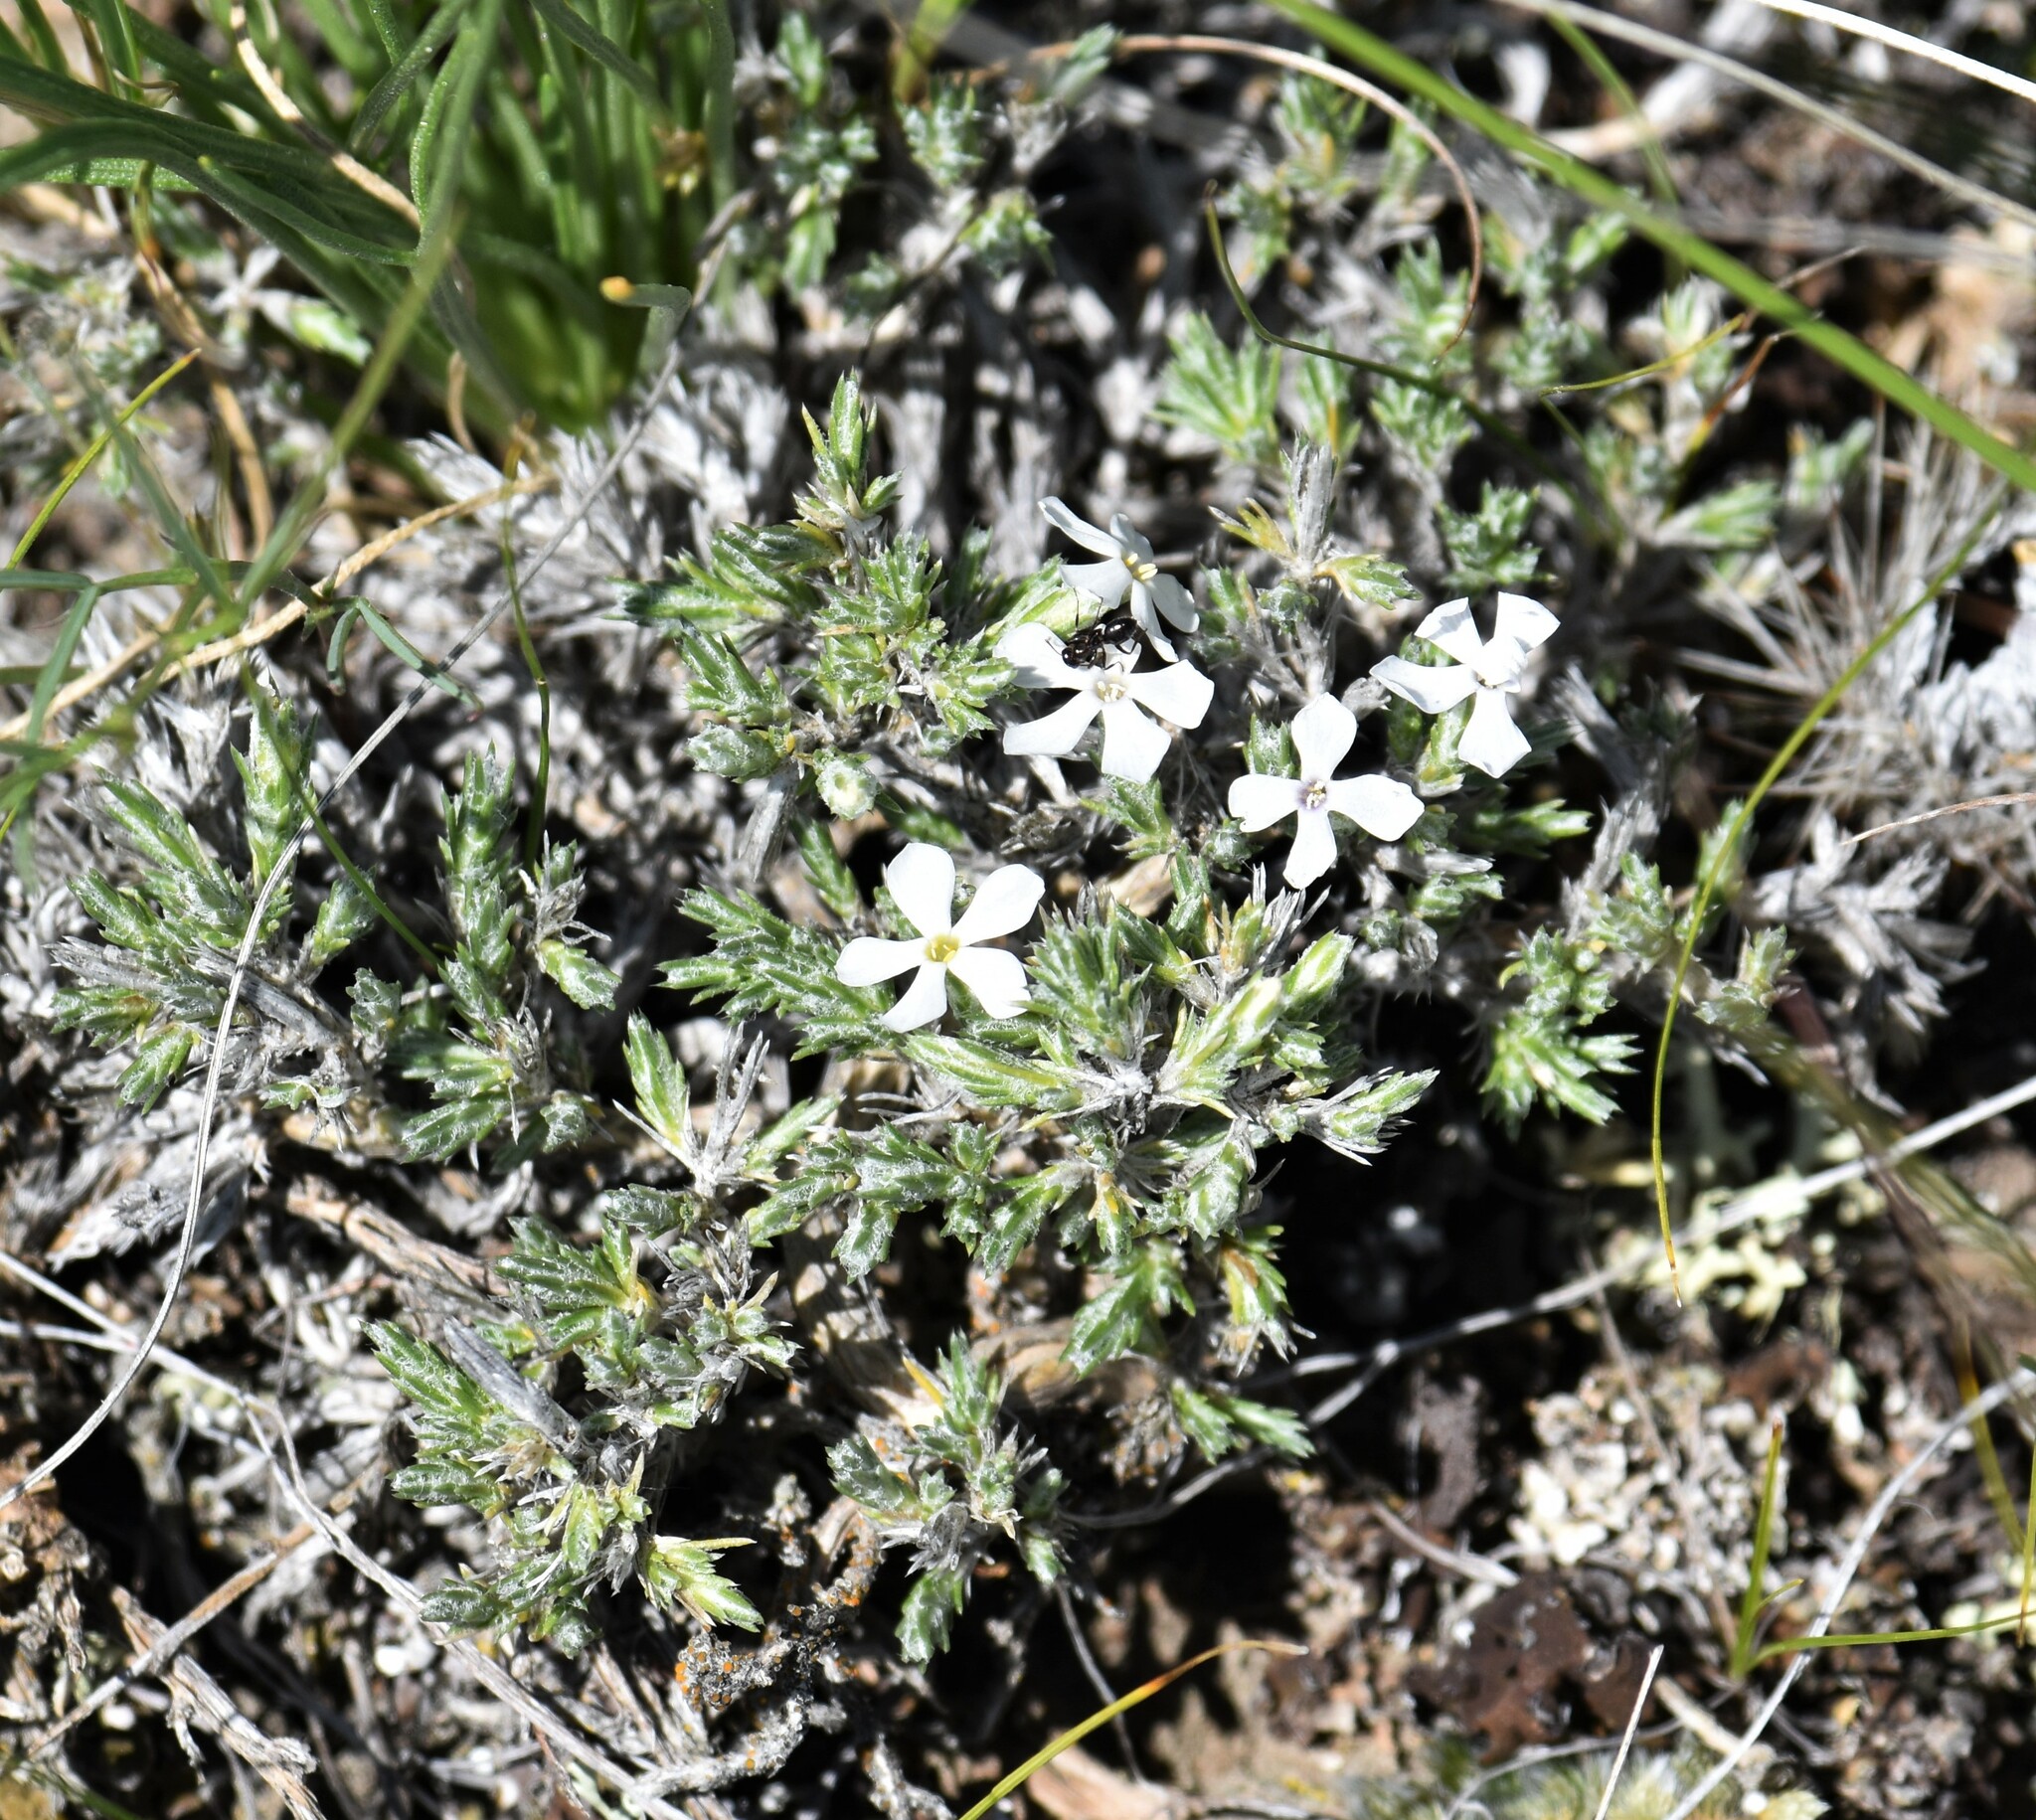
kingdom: Plantae
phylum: Tracheophyta
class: Magnoliopsida
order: Ericales
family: Polemoniaceae
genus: Phlox
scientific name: Phlox hoodii
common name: Moss phlox
